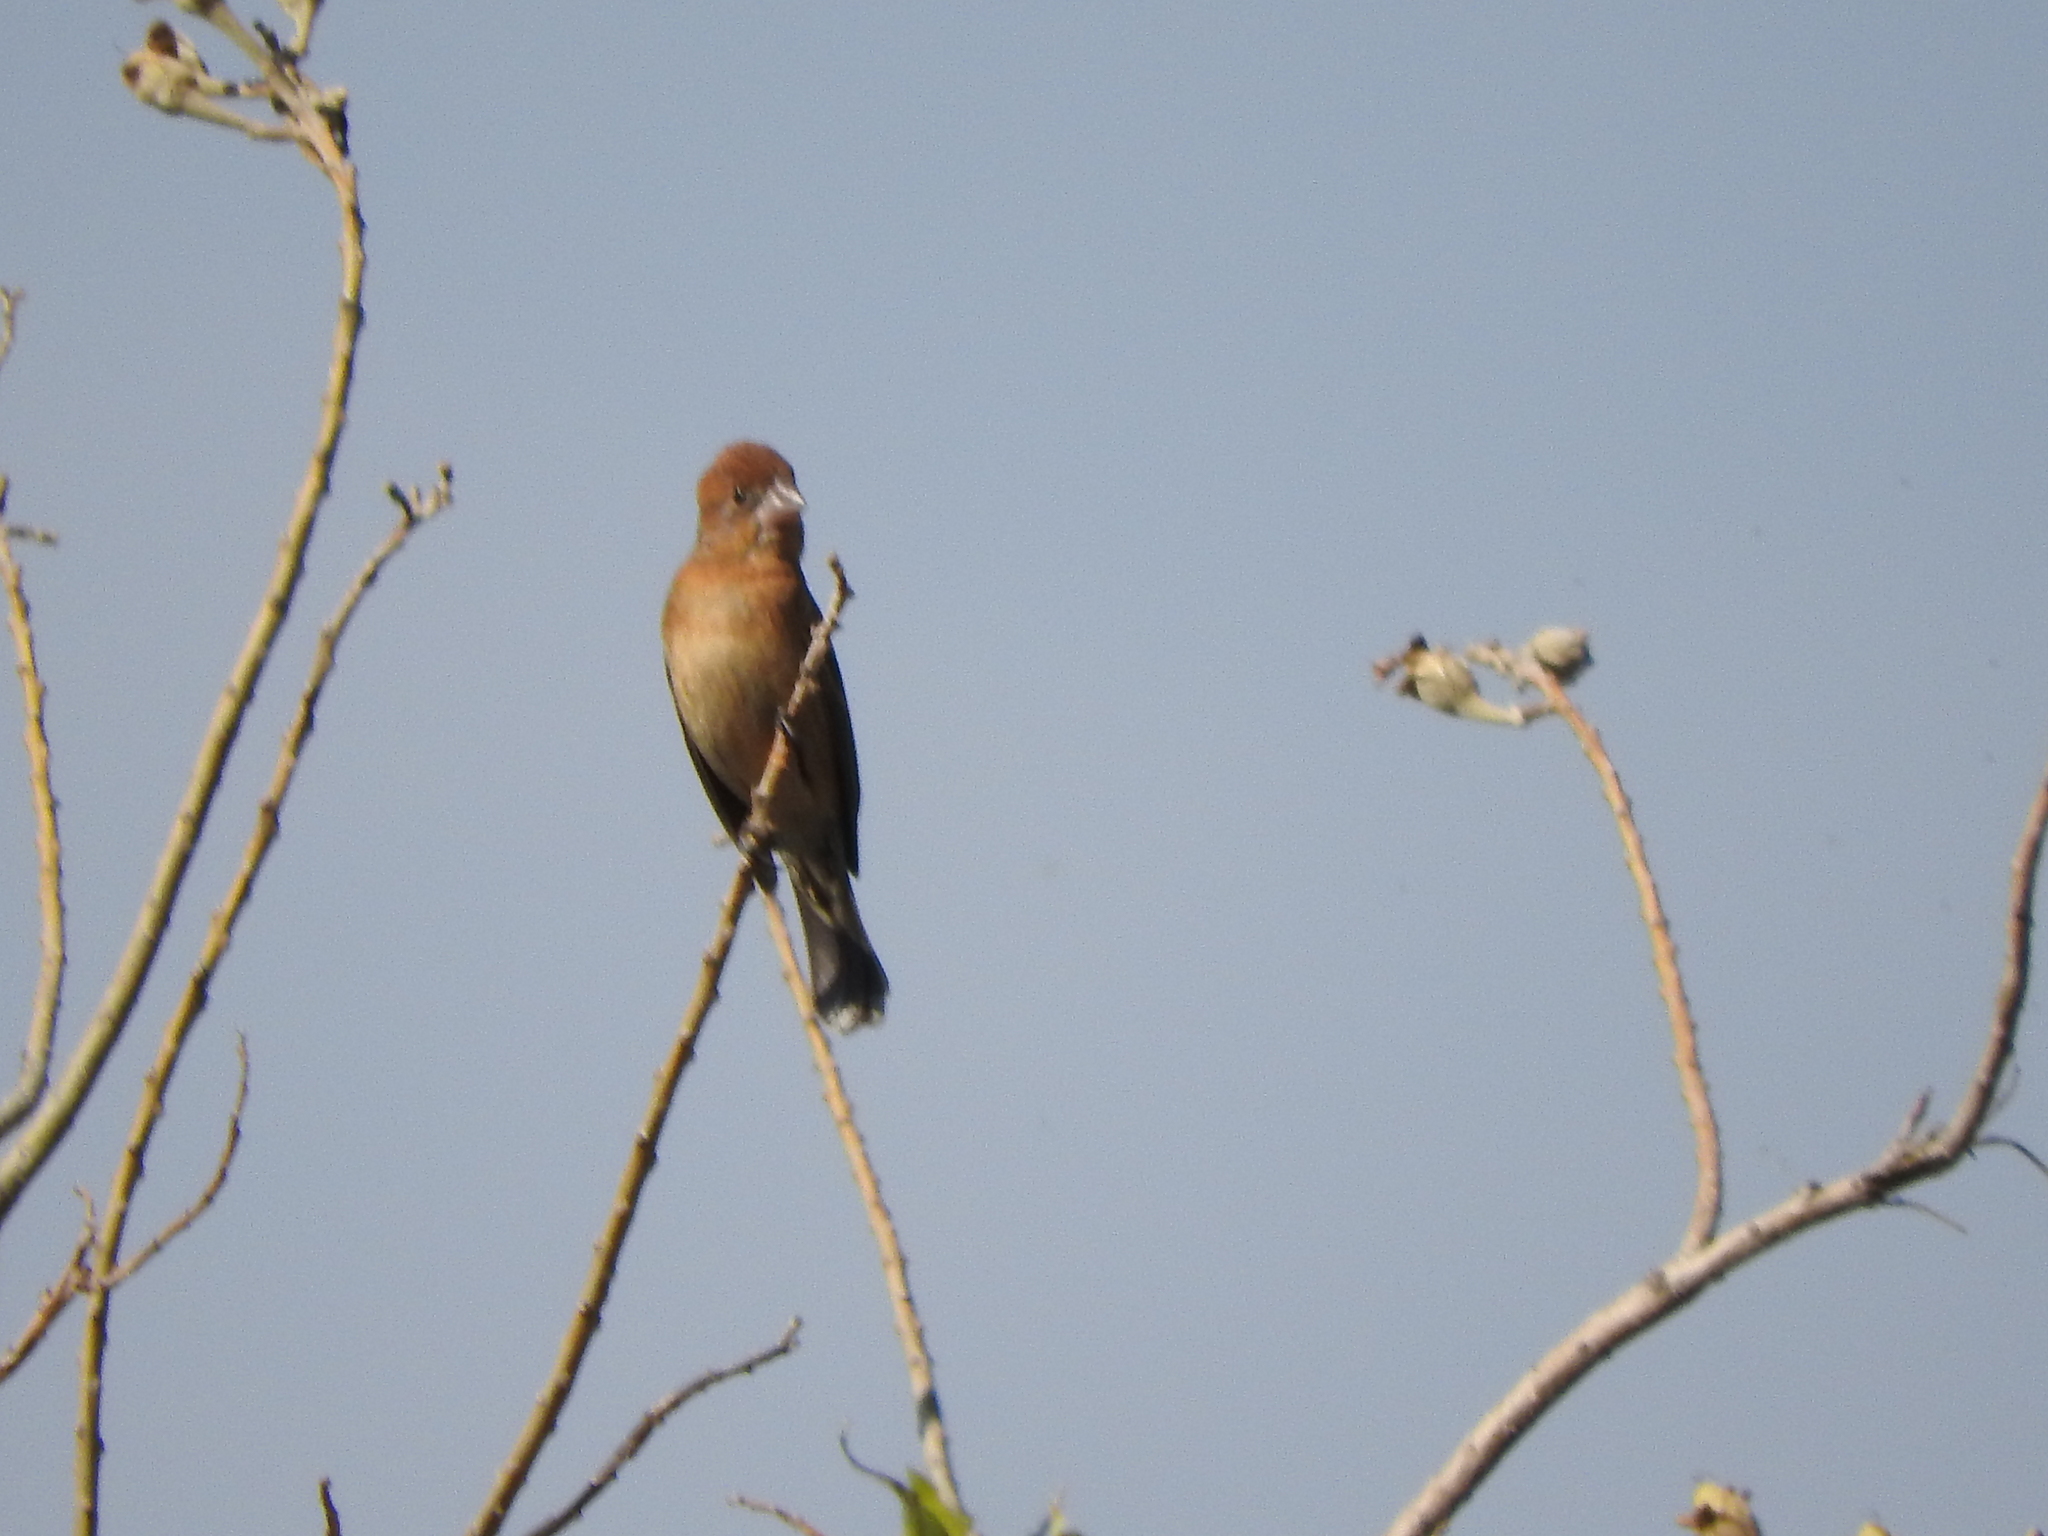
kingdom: Animalia
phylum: Chordata
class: Aves
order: Passeriformes
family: Cardinalidae
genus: Passerina
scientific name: Passerina caerulea
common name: Blue grosbeak
